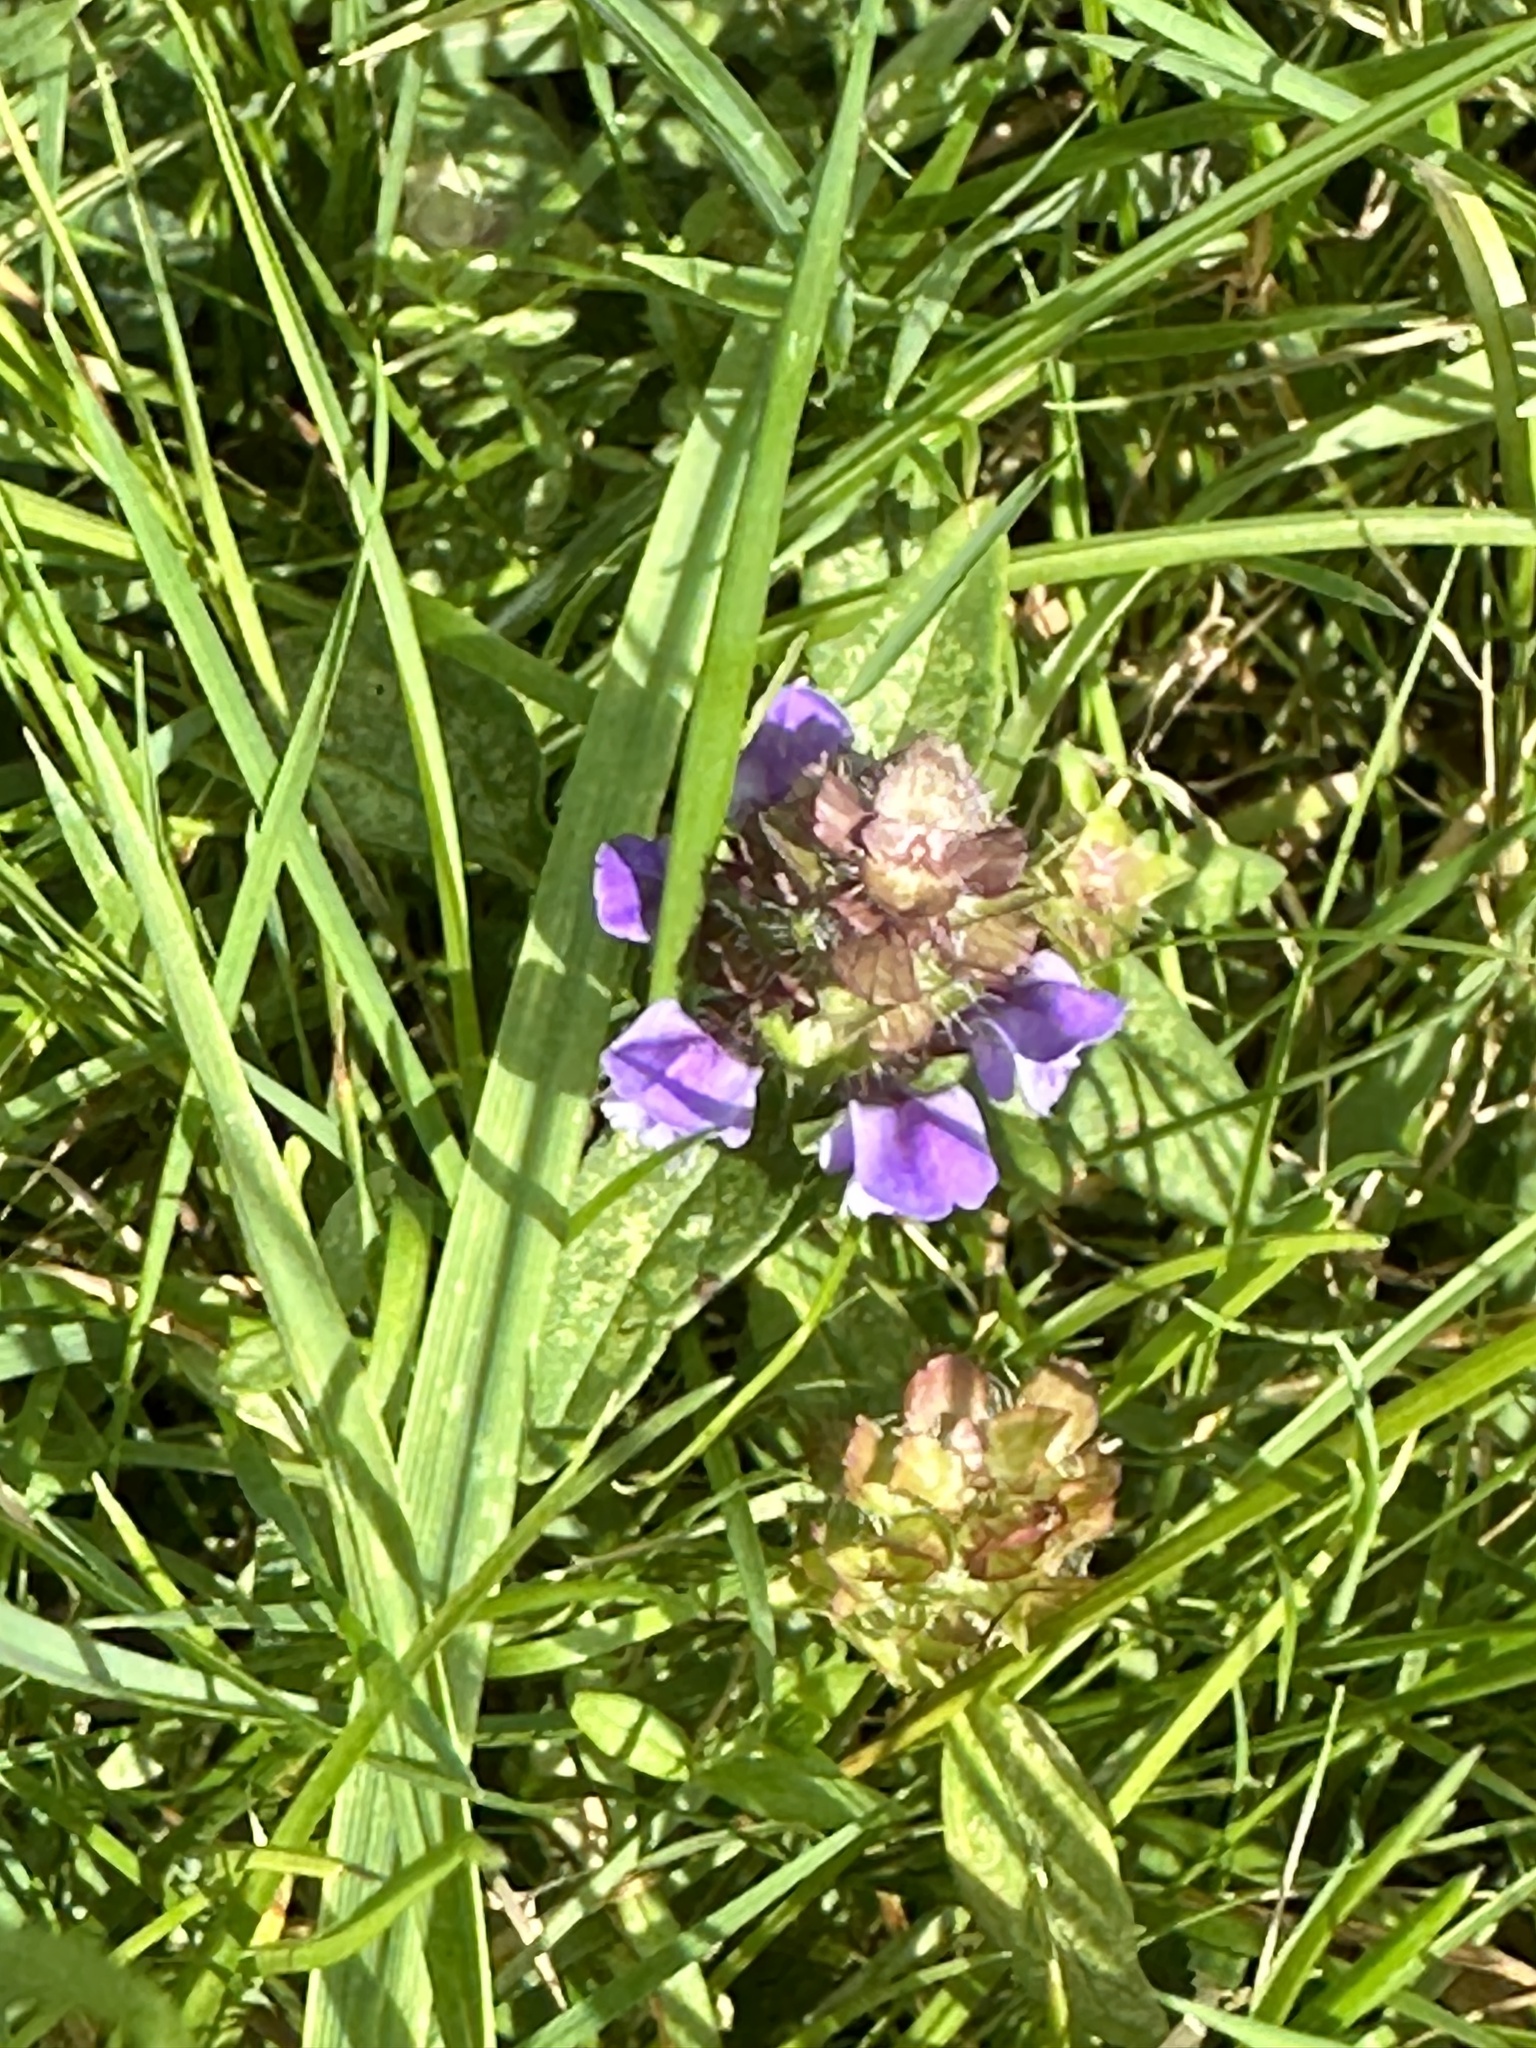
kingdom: Plantae
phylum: Tracheophyta
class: Magnoliopsida
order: Lamiales
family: Lamiaceae
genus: Prunella
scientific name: Prunella vulgaris
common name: Heal-all
